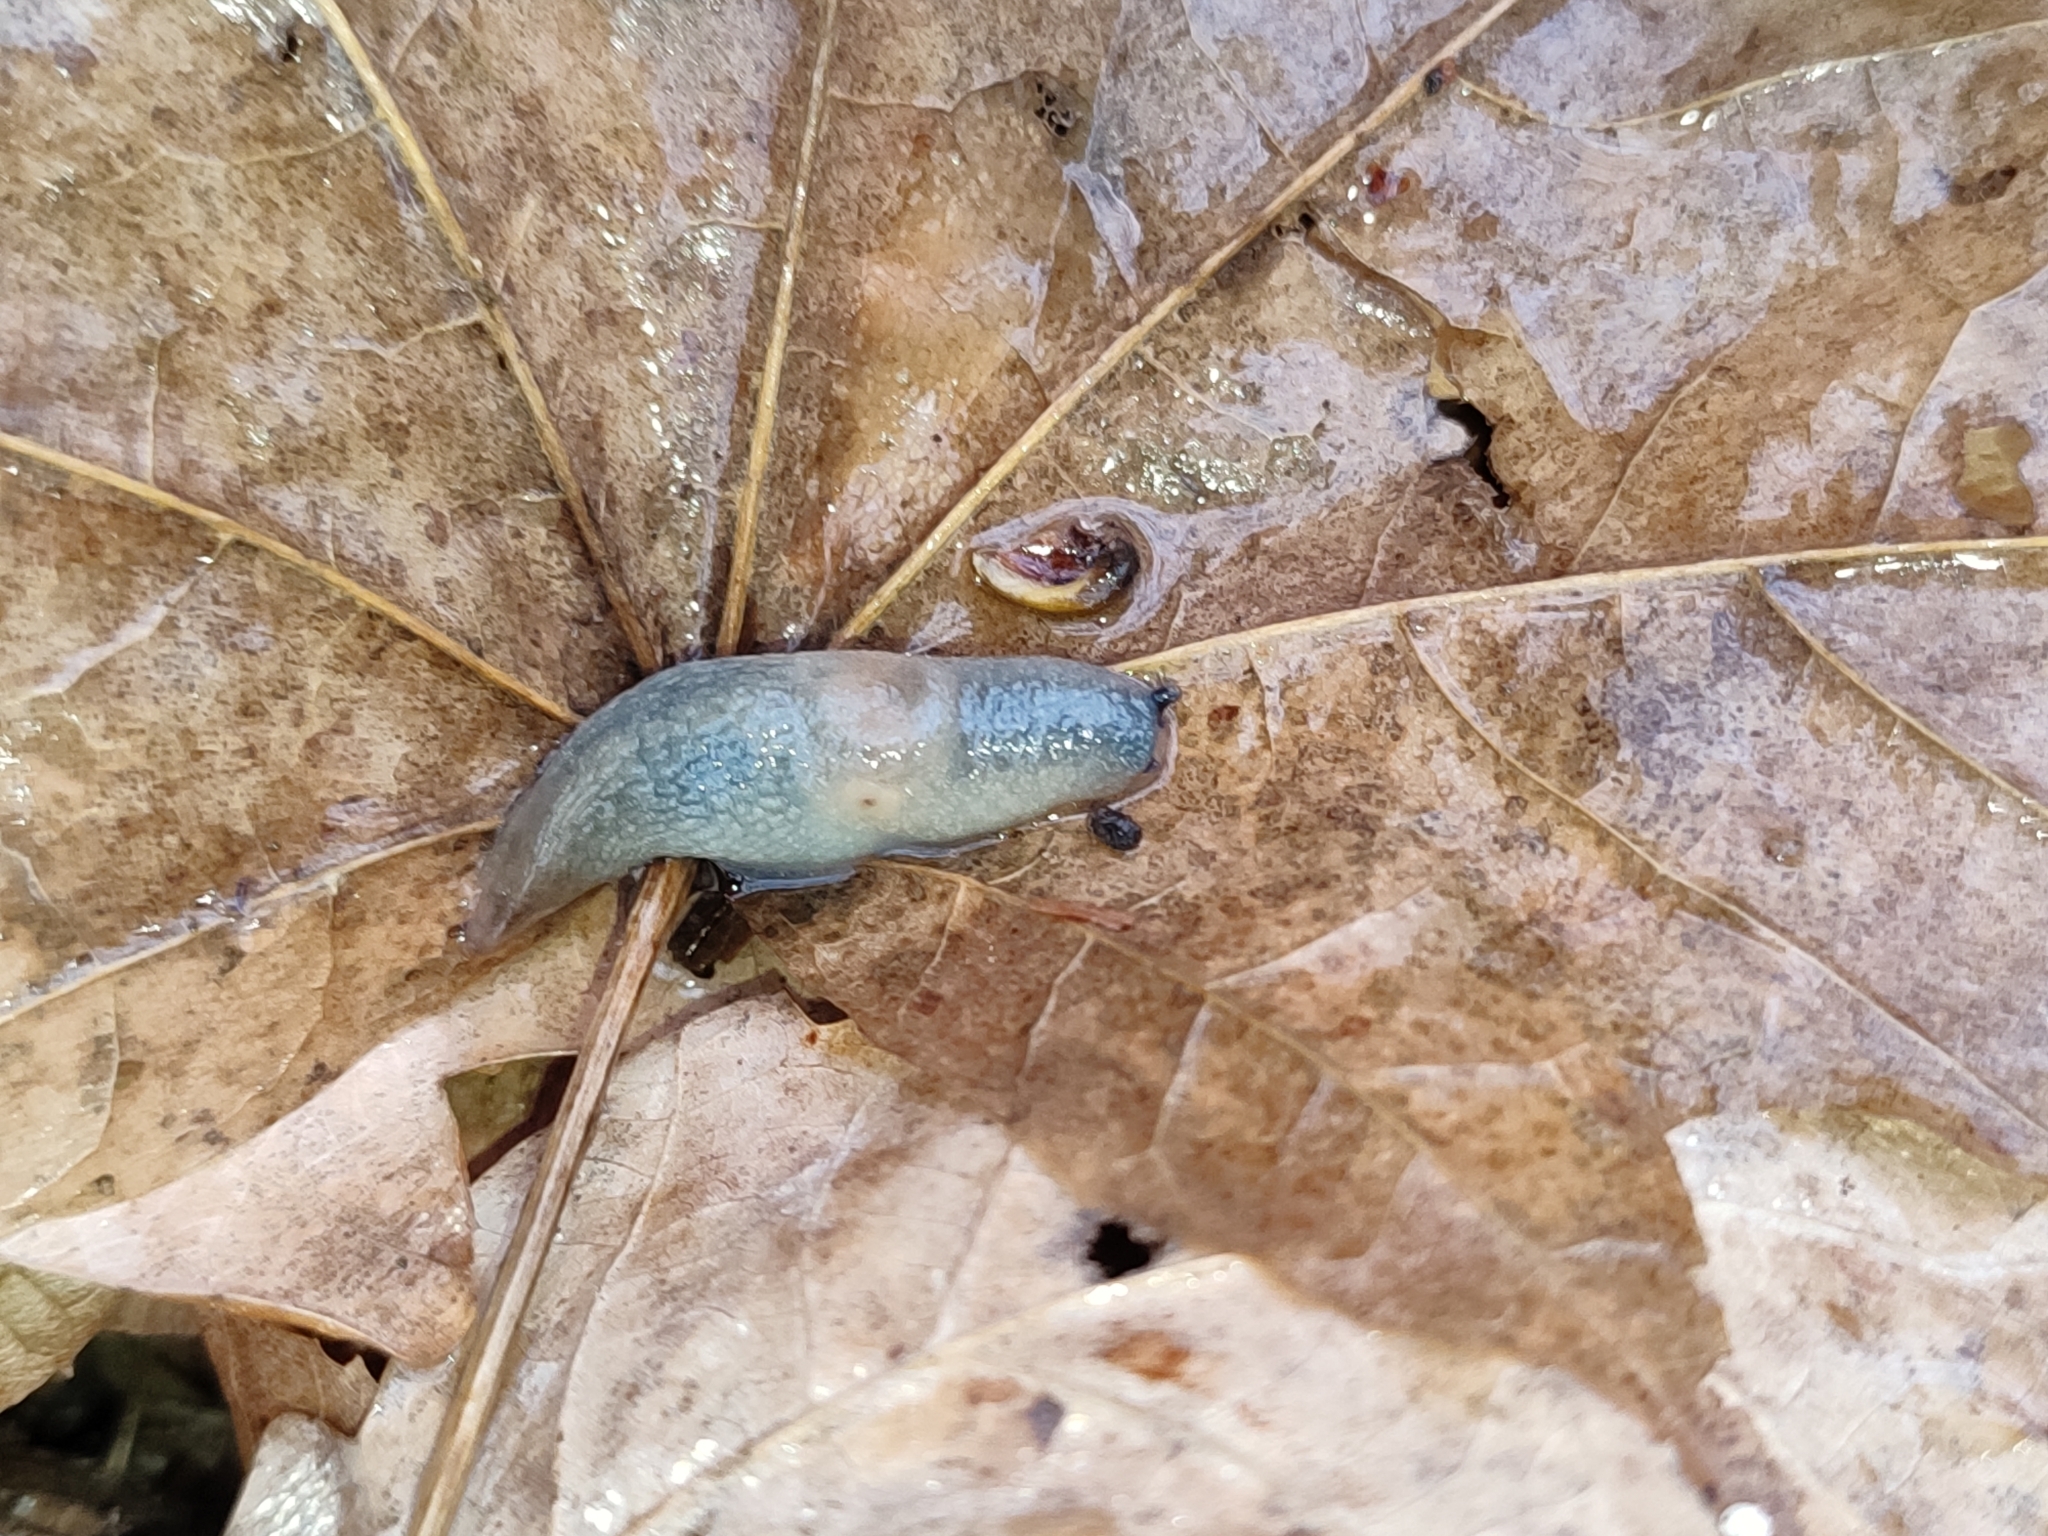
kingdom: Animalia
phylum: Mollusca
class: Gastropoda
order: Stylommatophora
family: Agriolimacidae
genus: Krynickillus
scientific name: Krynickillus melanocephalus
